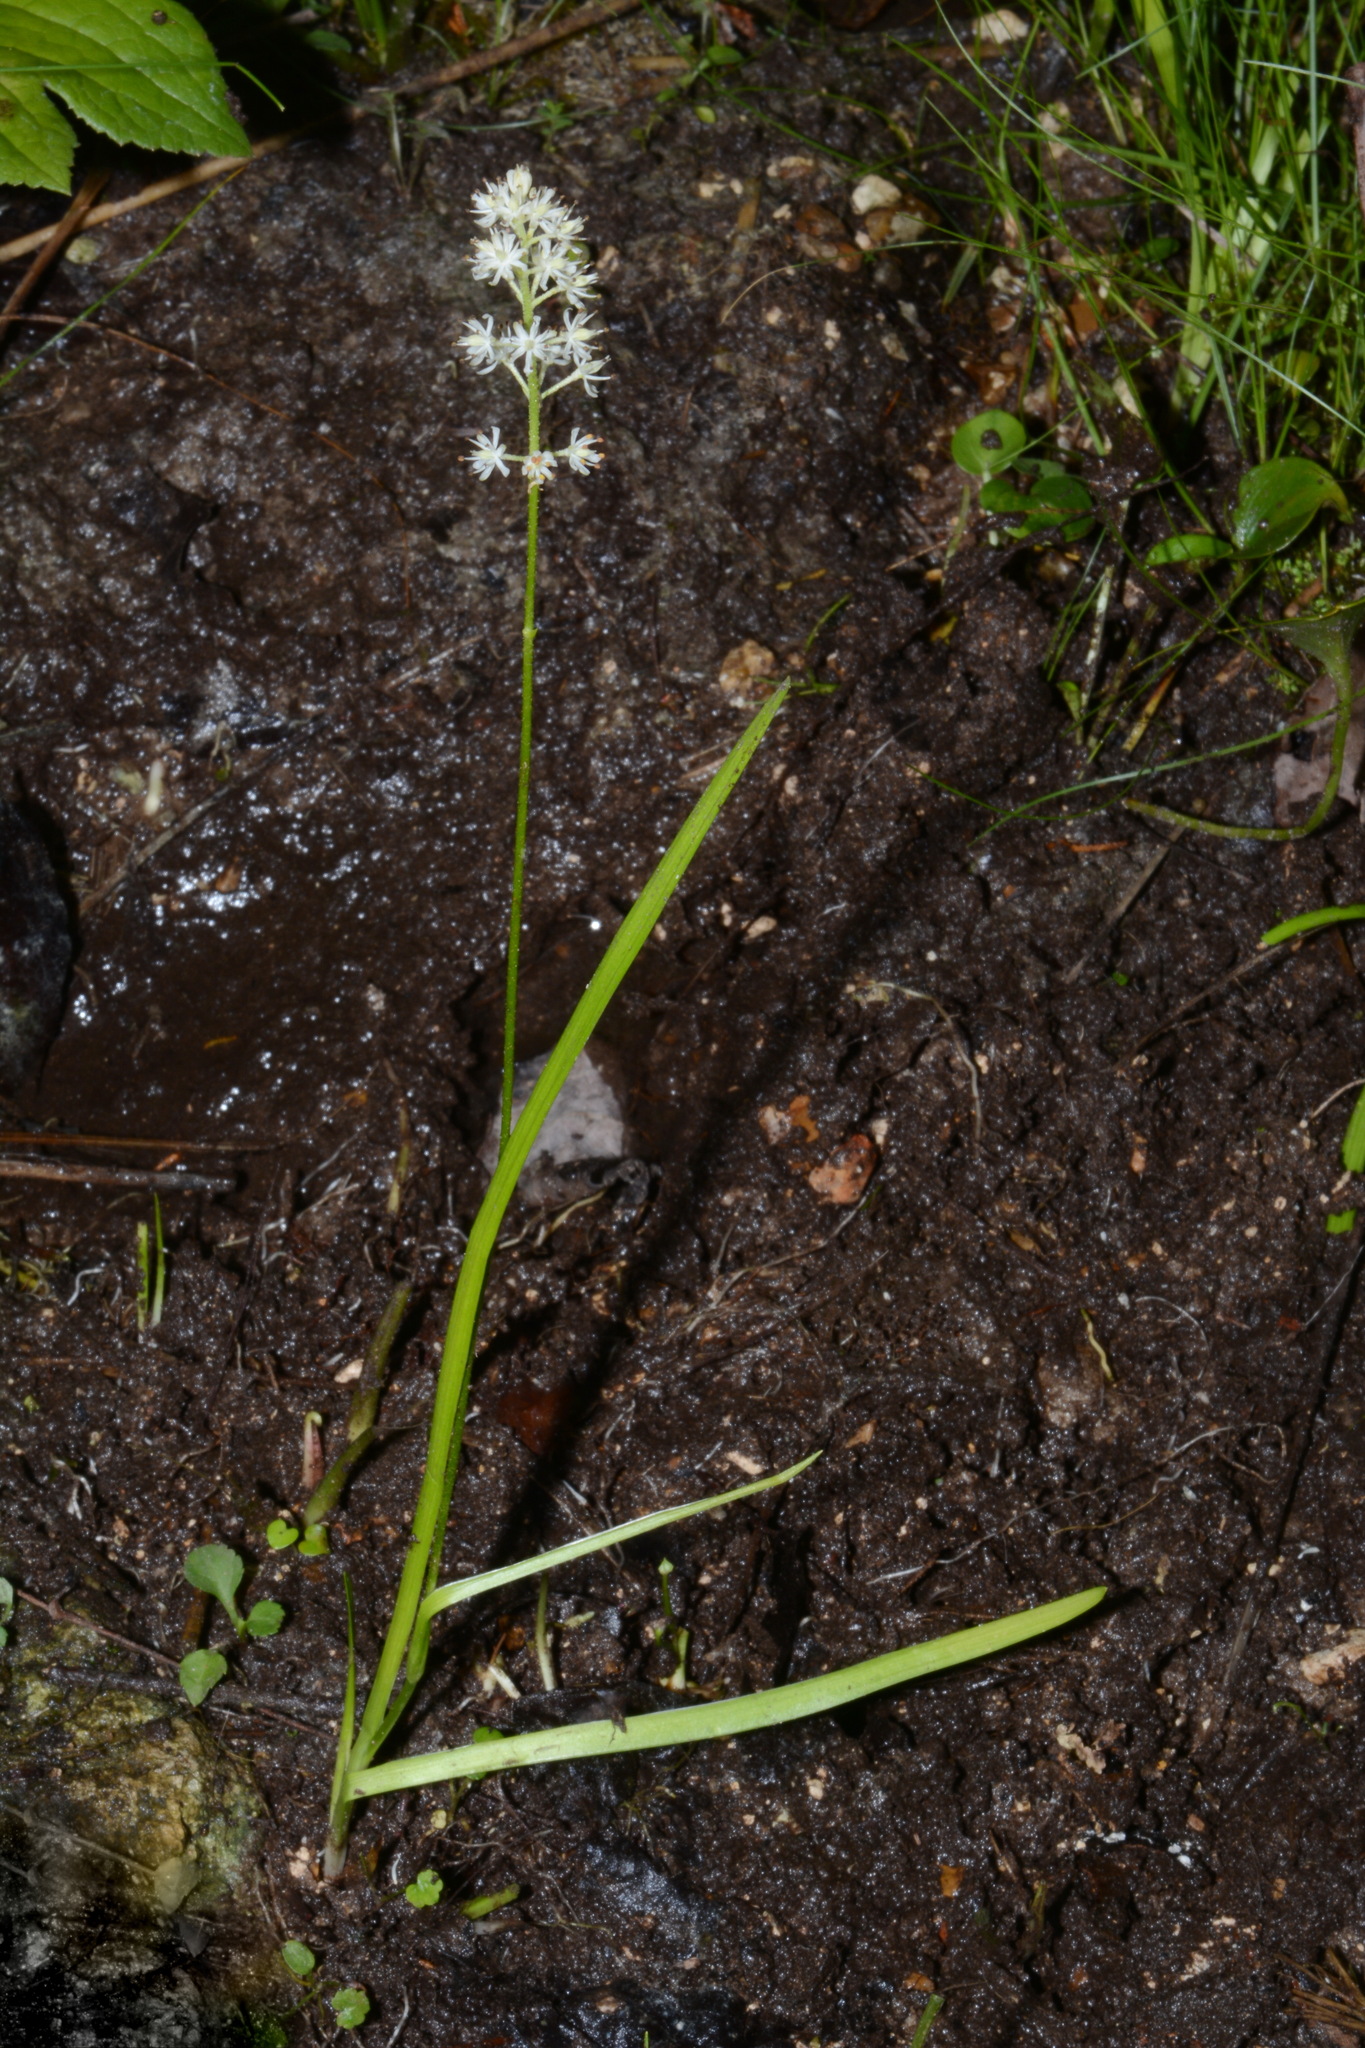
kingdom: Plantae
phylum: Tracheophyta
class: Liliopsida
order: Alismatales
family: Tofieldiaceae
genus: Triantha
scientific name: Triantha glutinosa
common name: Glutinous tofieldia
